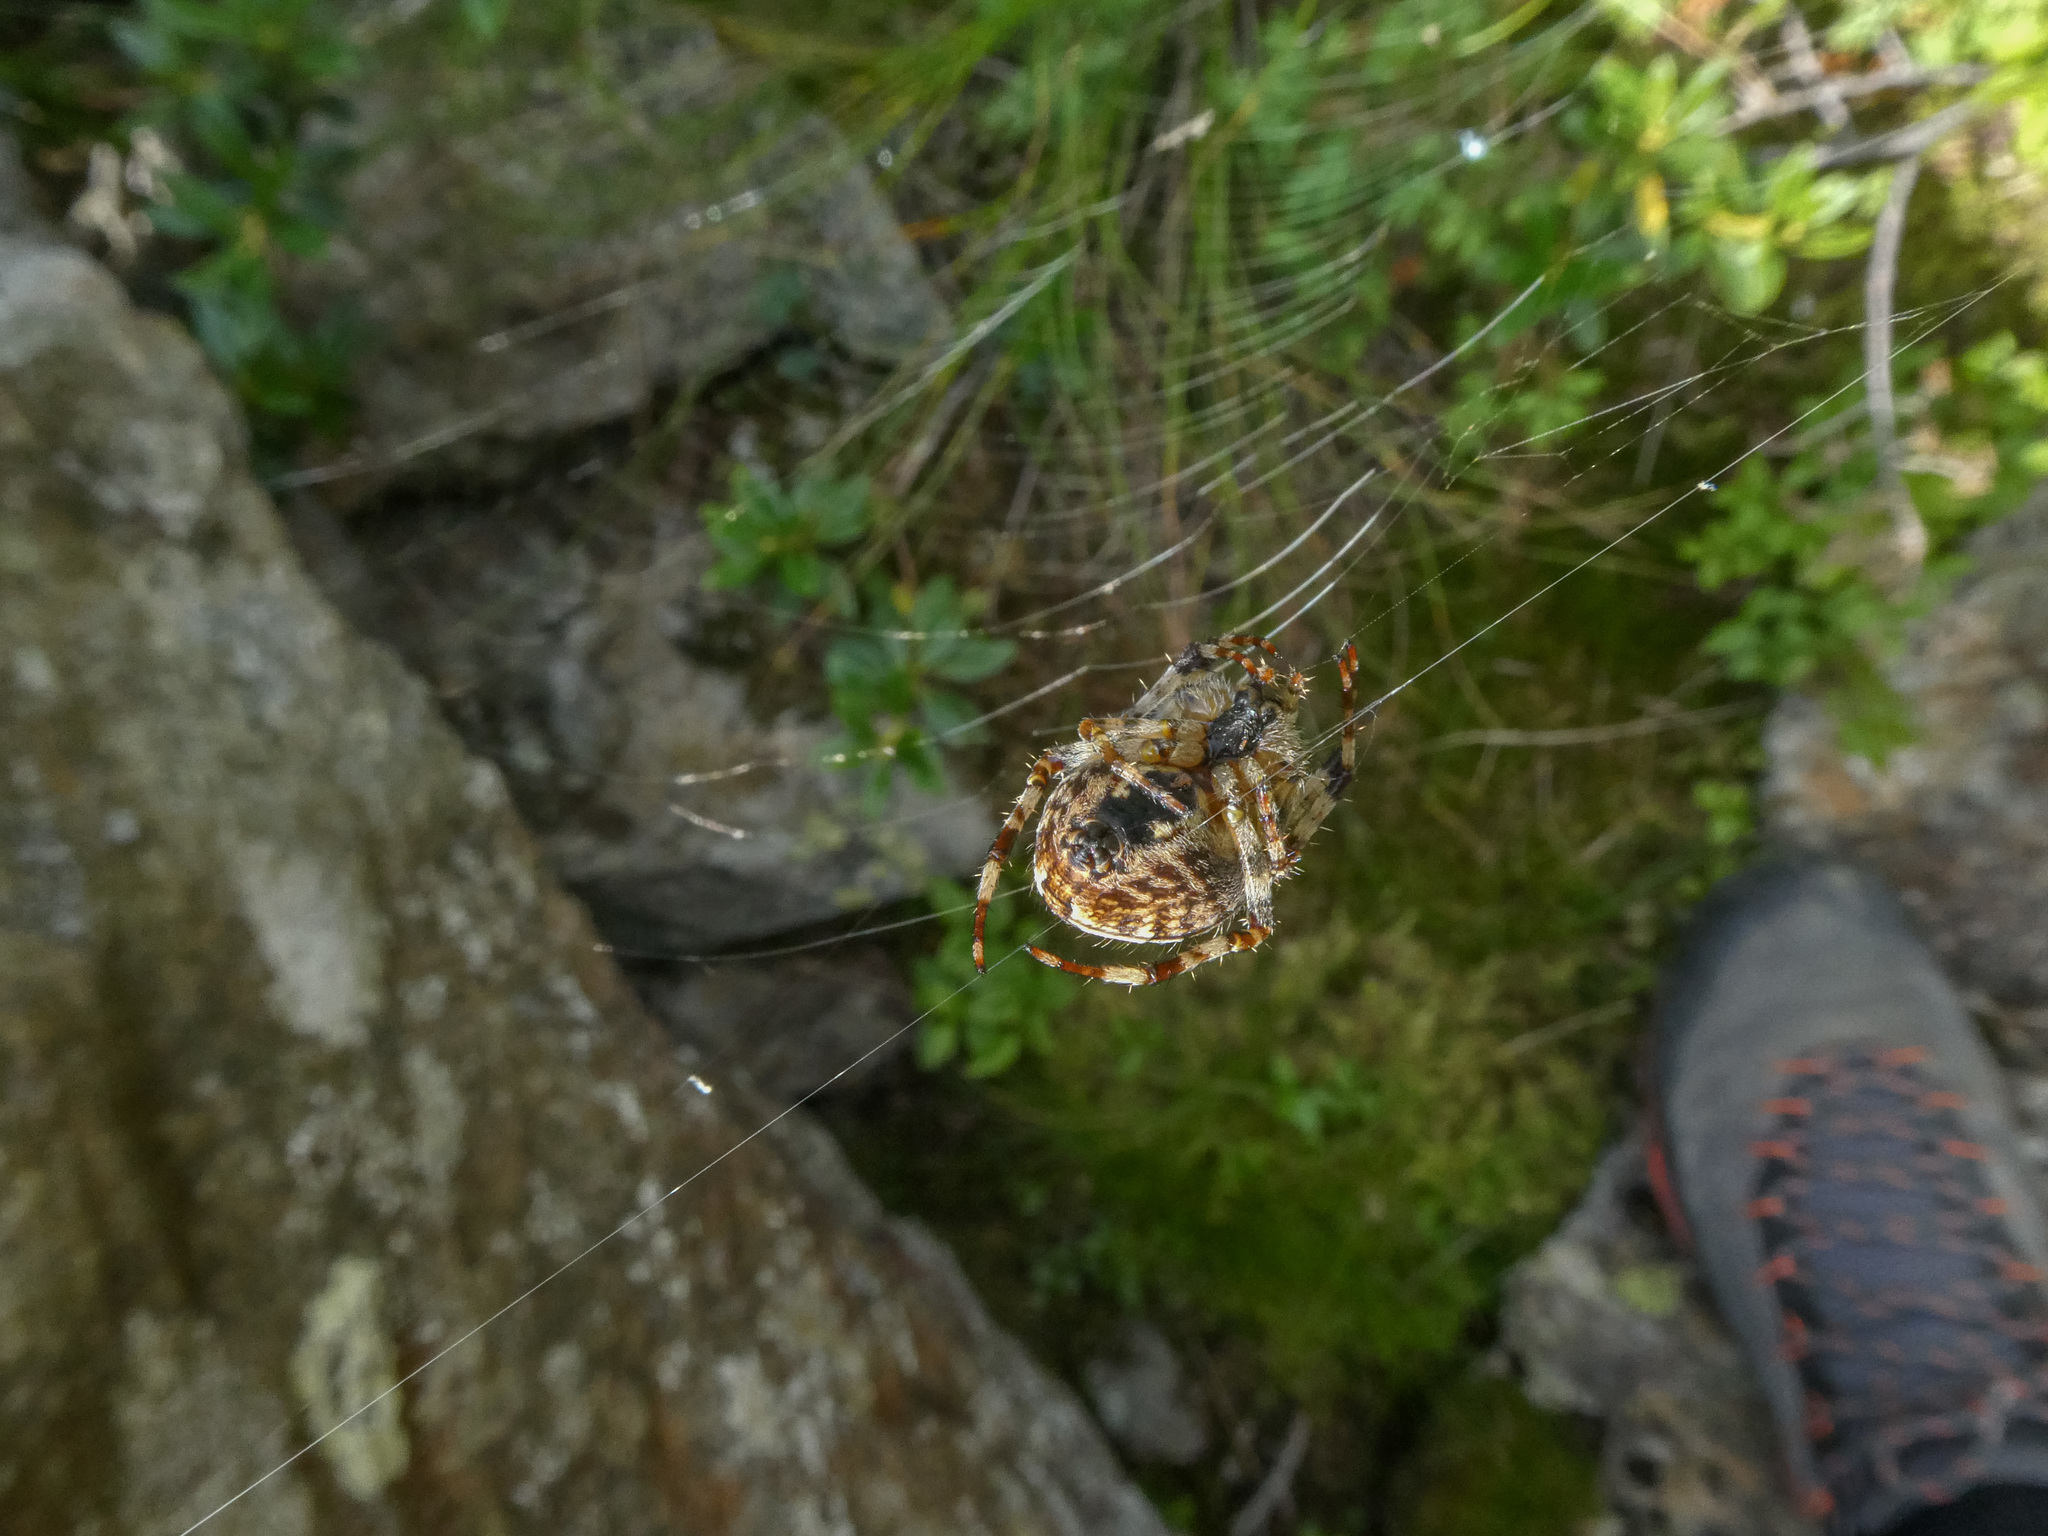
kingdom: Animalia
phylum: Arthropoda
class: Arachnida
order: Araneae
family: Araneidae
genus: Araneus
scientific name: Araneus diadematus
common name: Cross orbweaver
